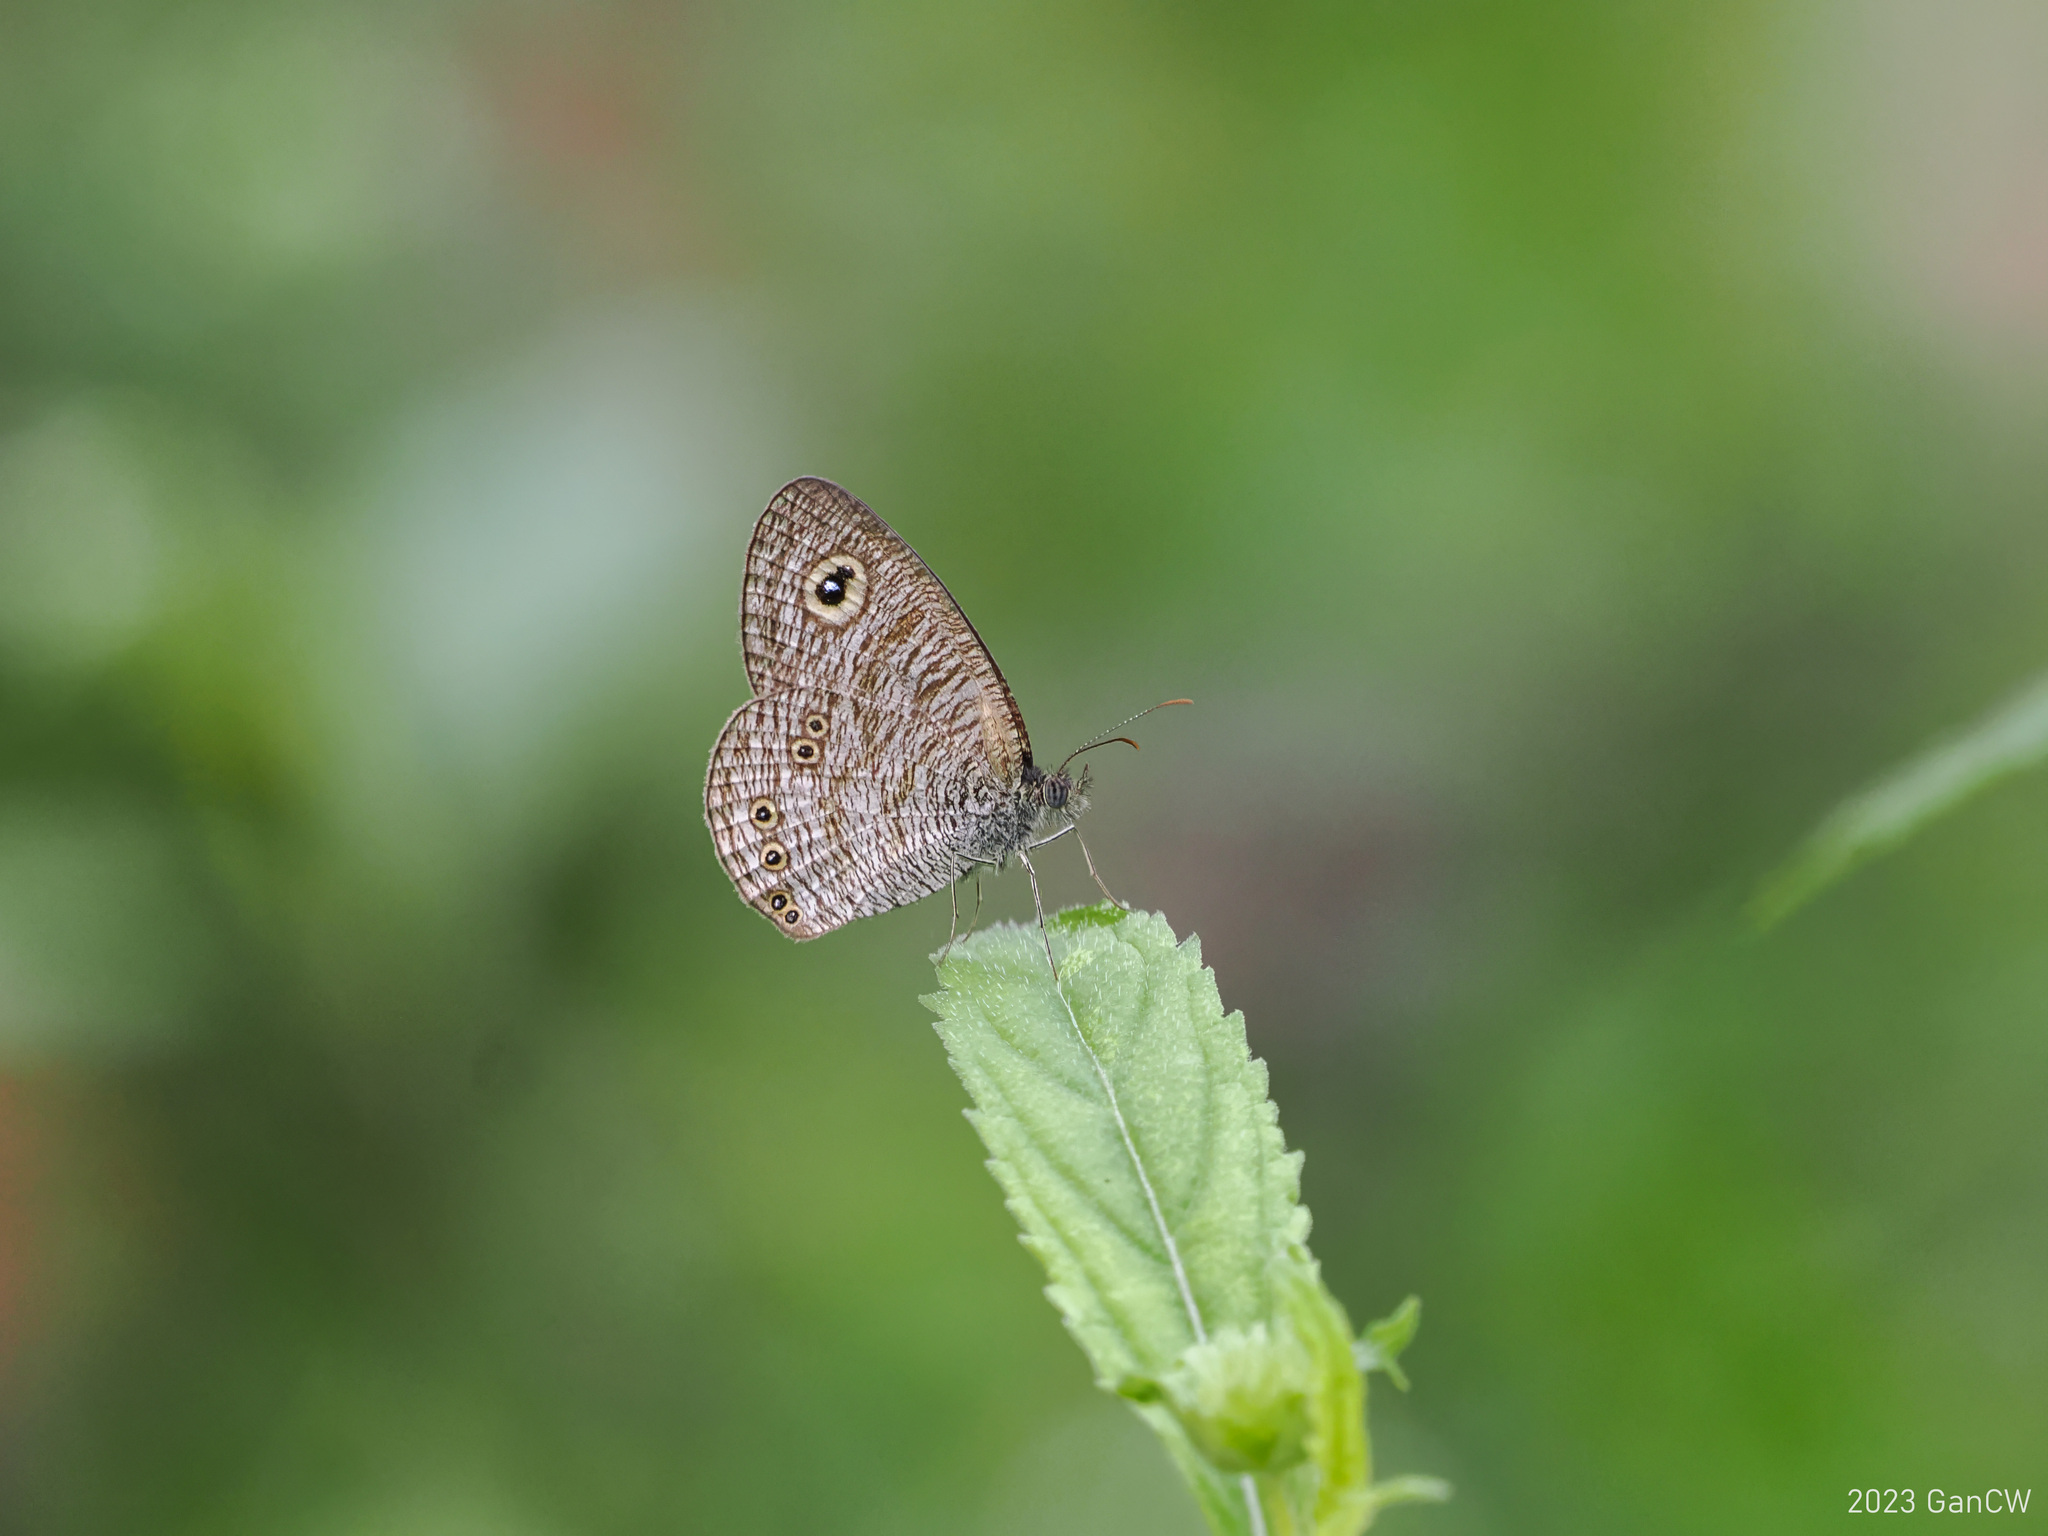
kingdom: Animalia
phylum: Arthropoda
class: Insecta
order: Lepidoptera
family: Nymphalidae
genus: Ypthima
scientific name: Ypthima nigricans
